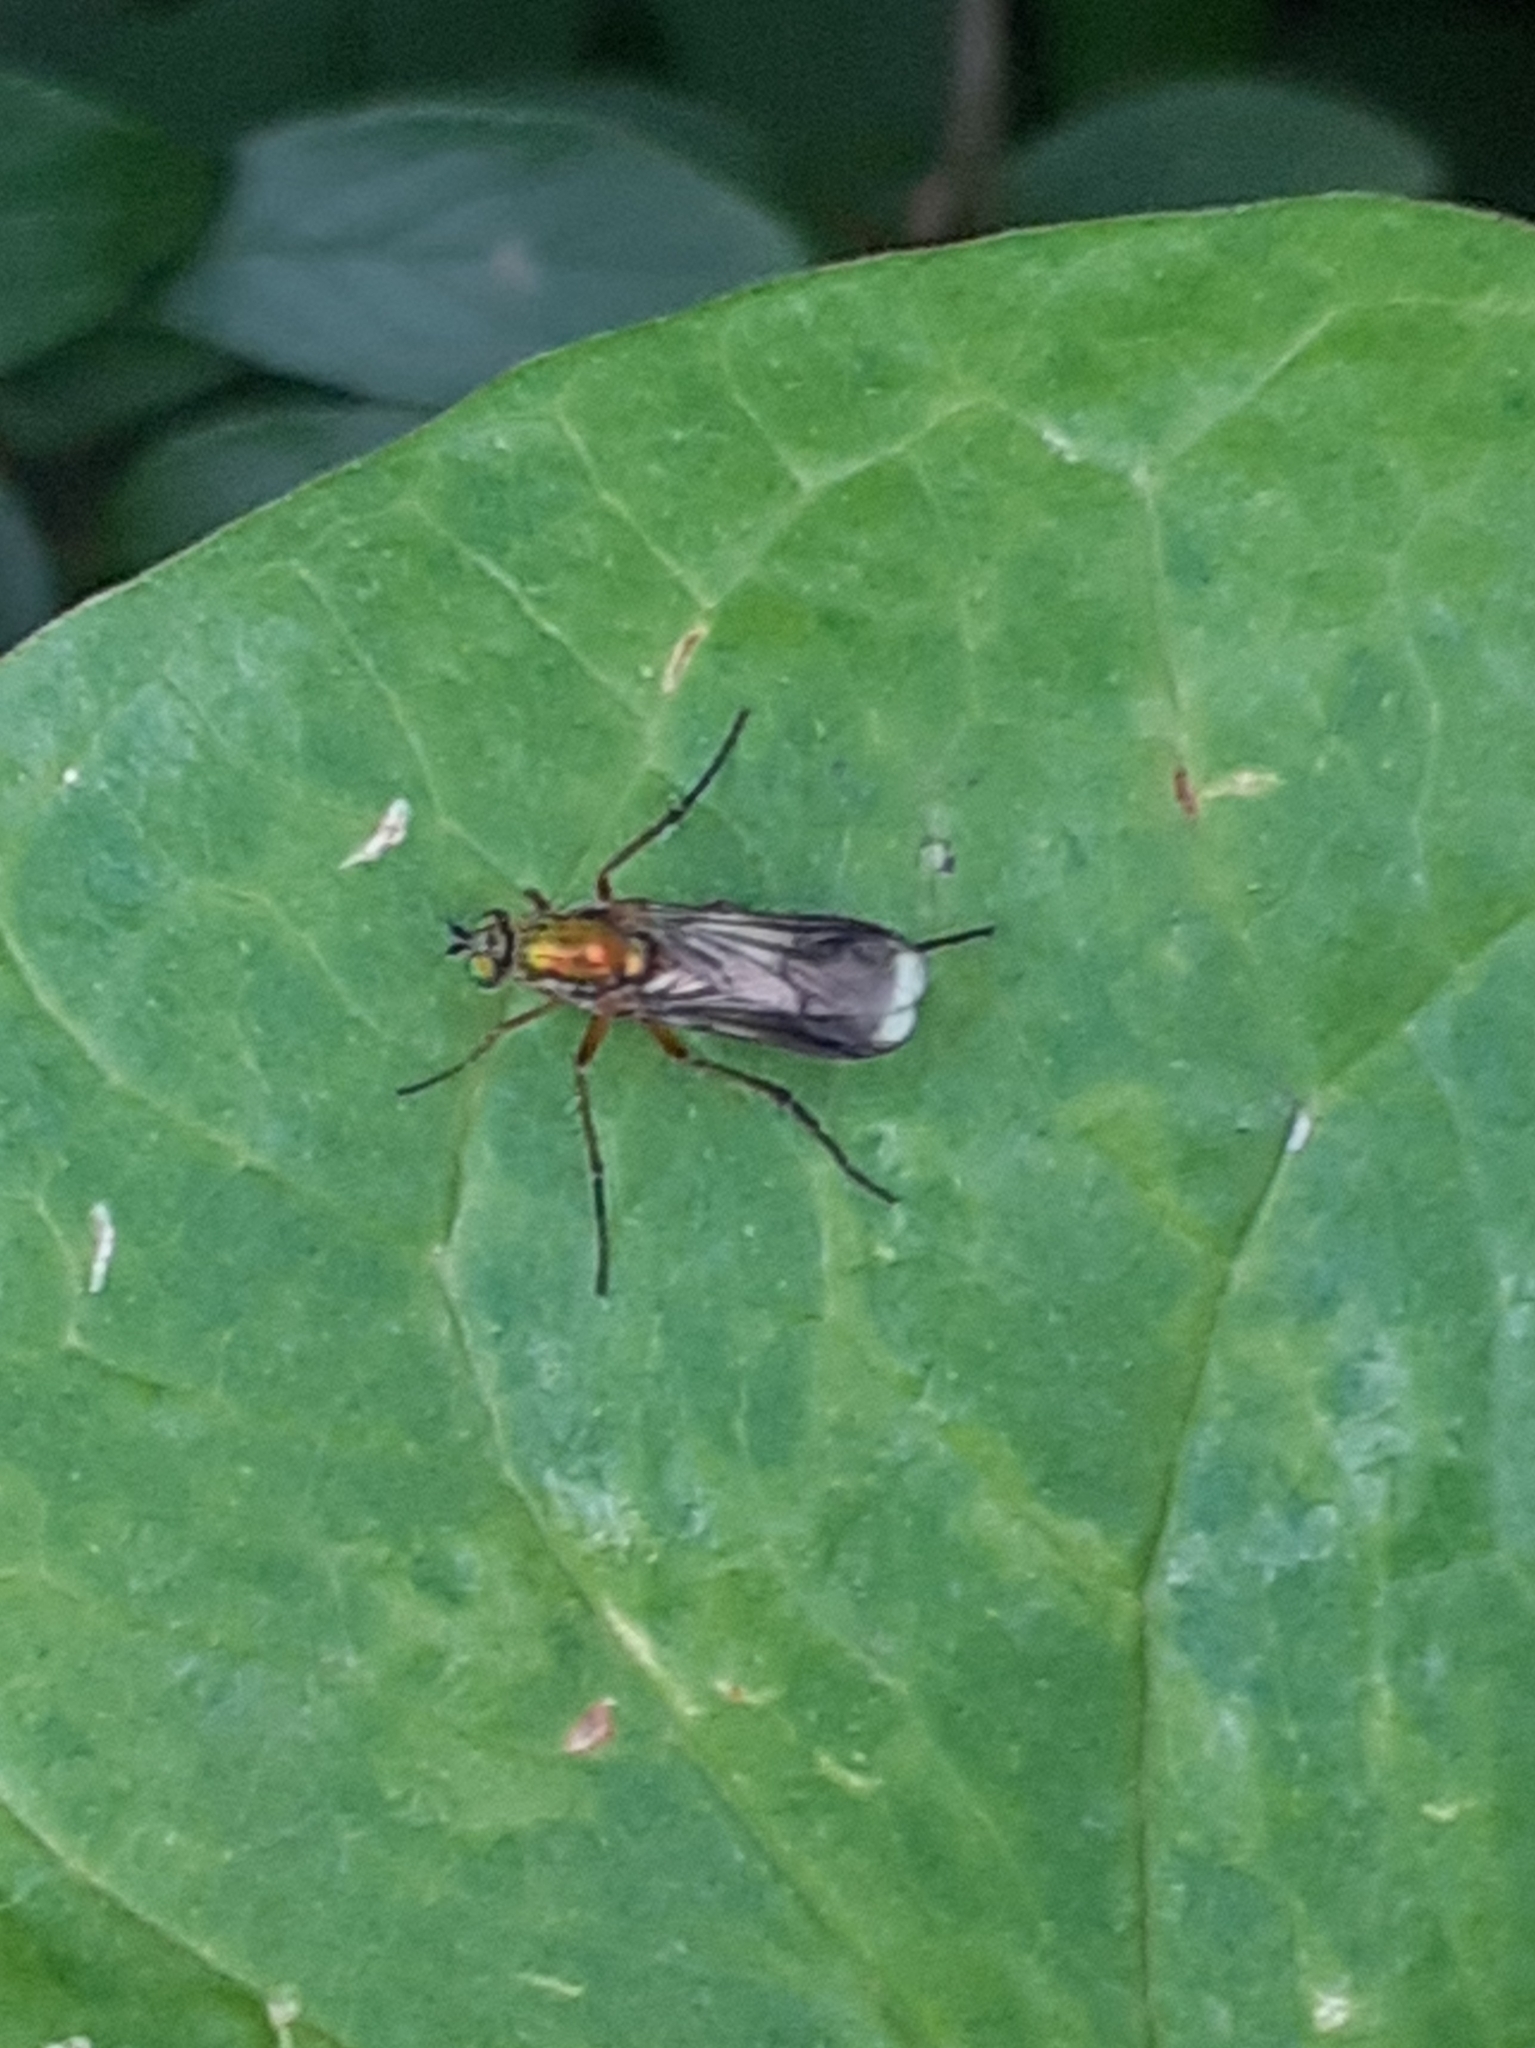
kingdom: Animalia
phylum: Arthropoda
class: Insecta
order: Diptera
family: Dolichopodidae
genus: Poecilobothrus
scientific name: Poecilobothrus nobilitatus
